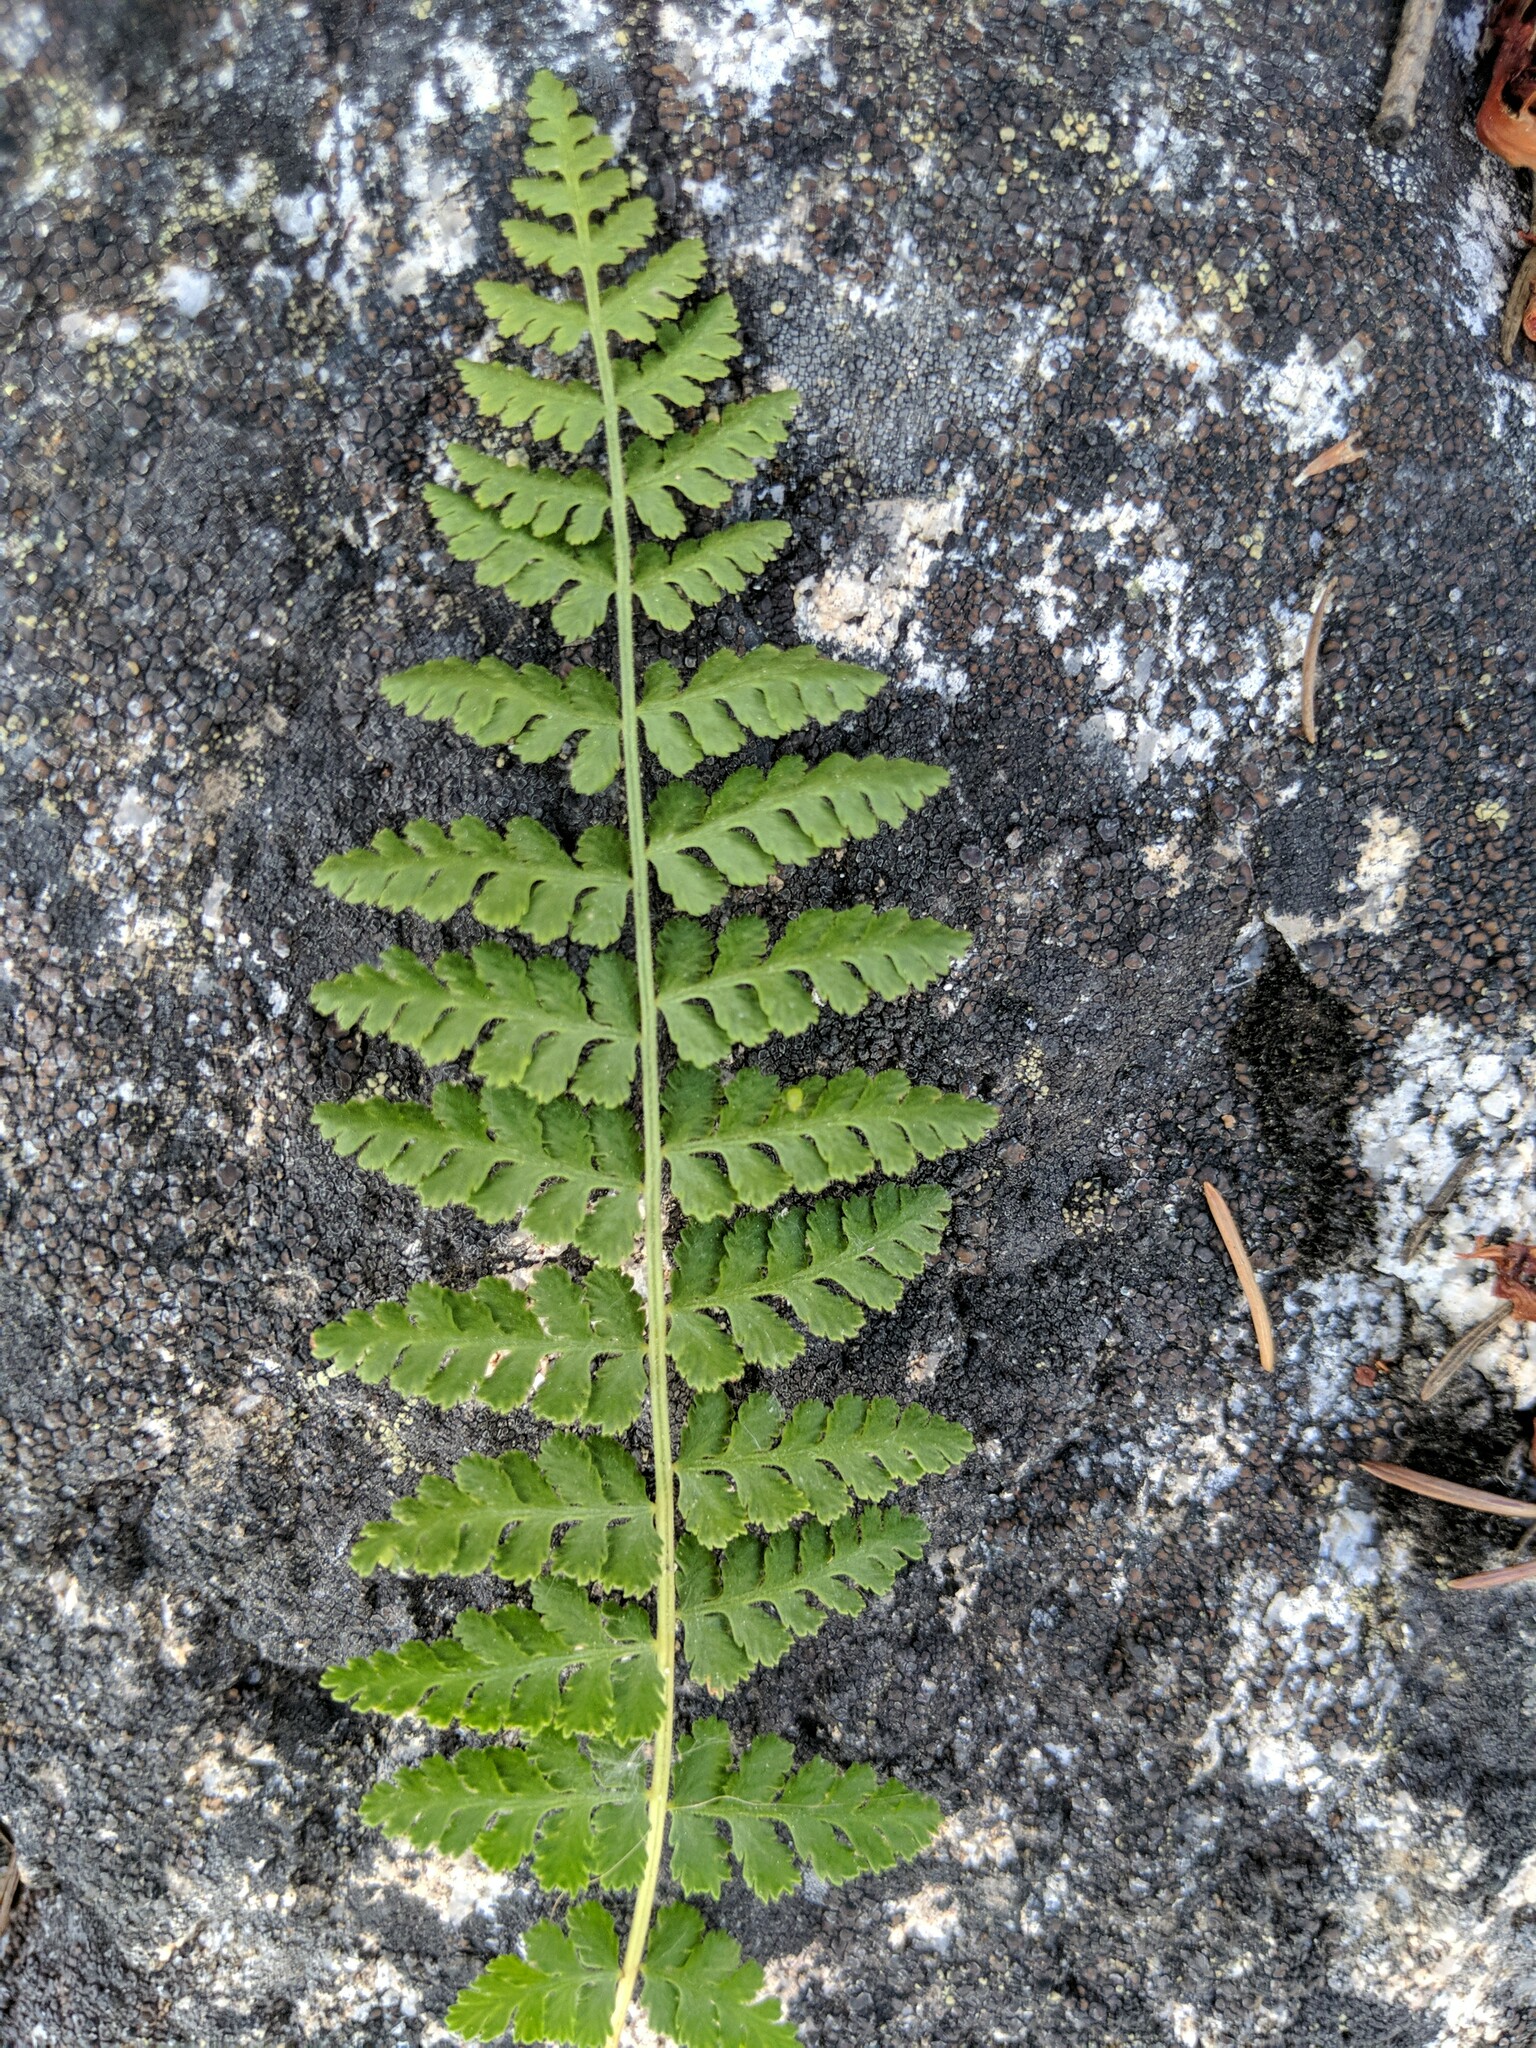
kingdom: Plantae
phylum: Tracheophyta
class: Polypodiopsida
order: Polypodiales
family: Woodsiaceae
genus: Physematium
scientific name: Physematium scopulinum
